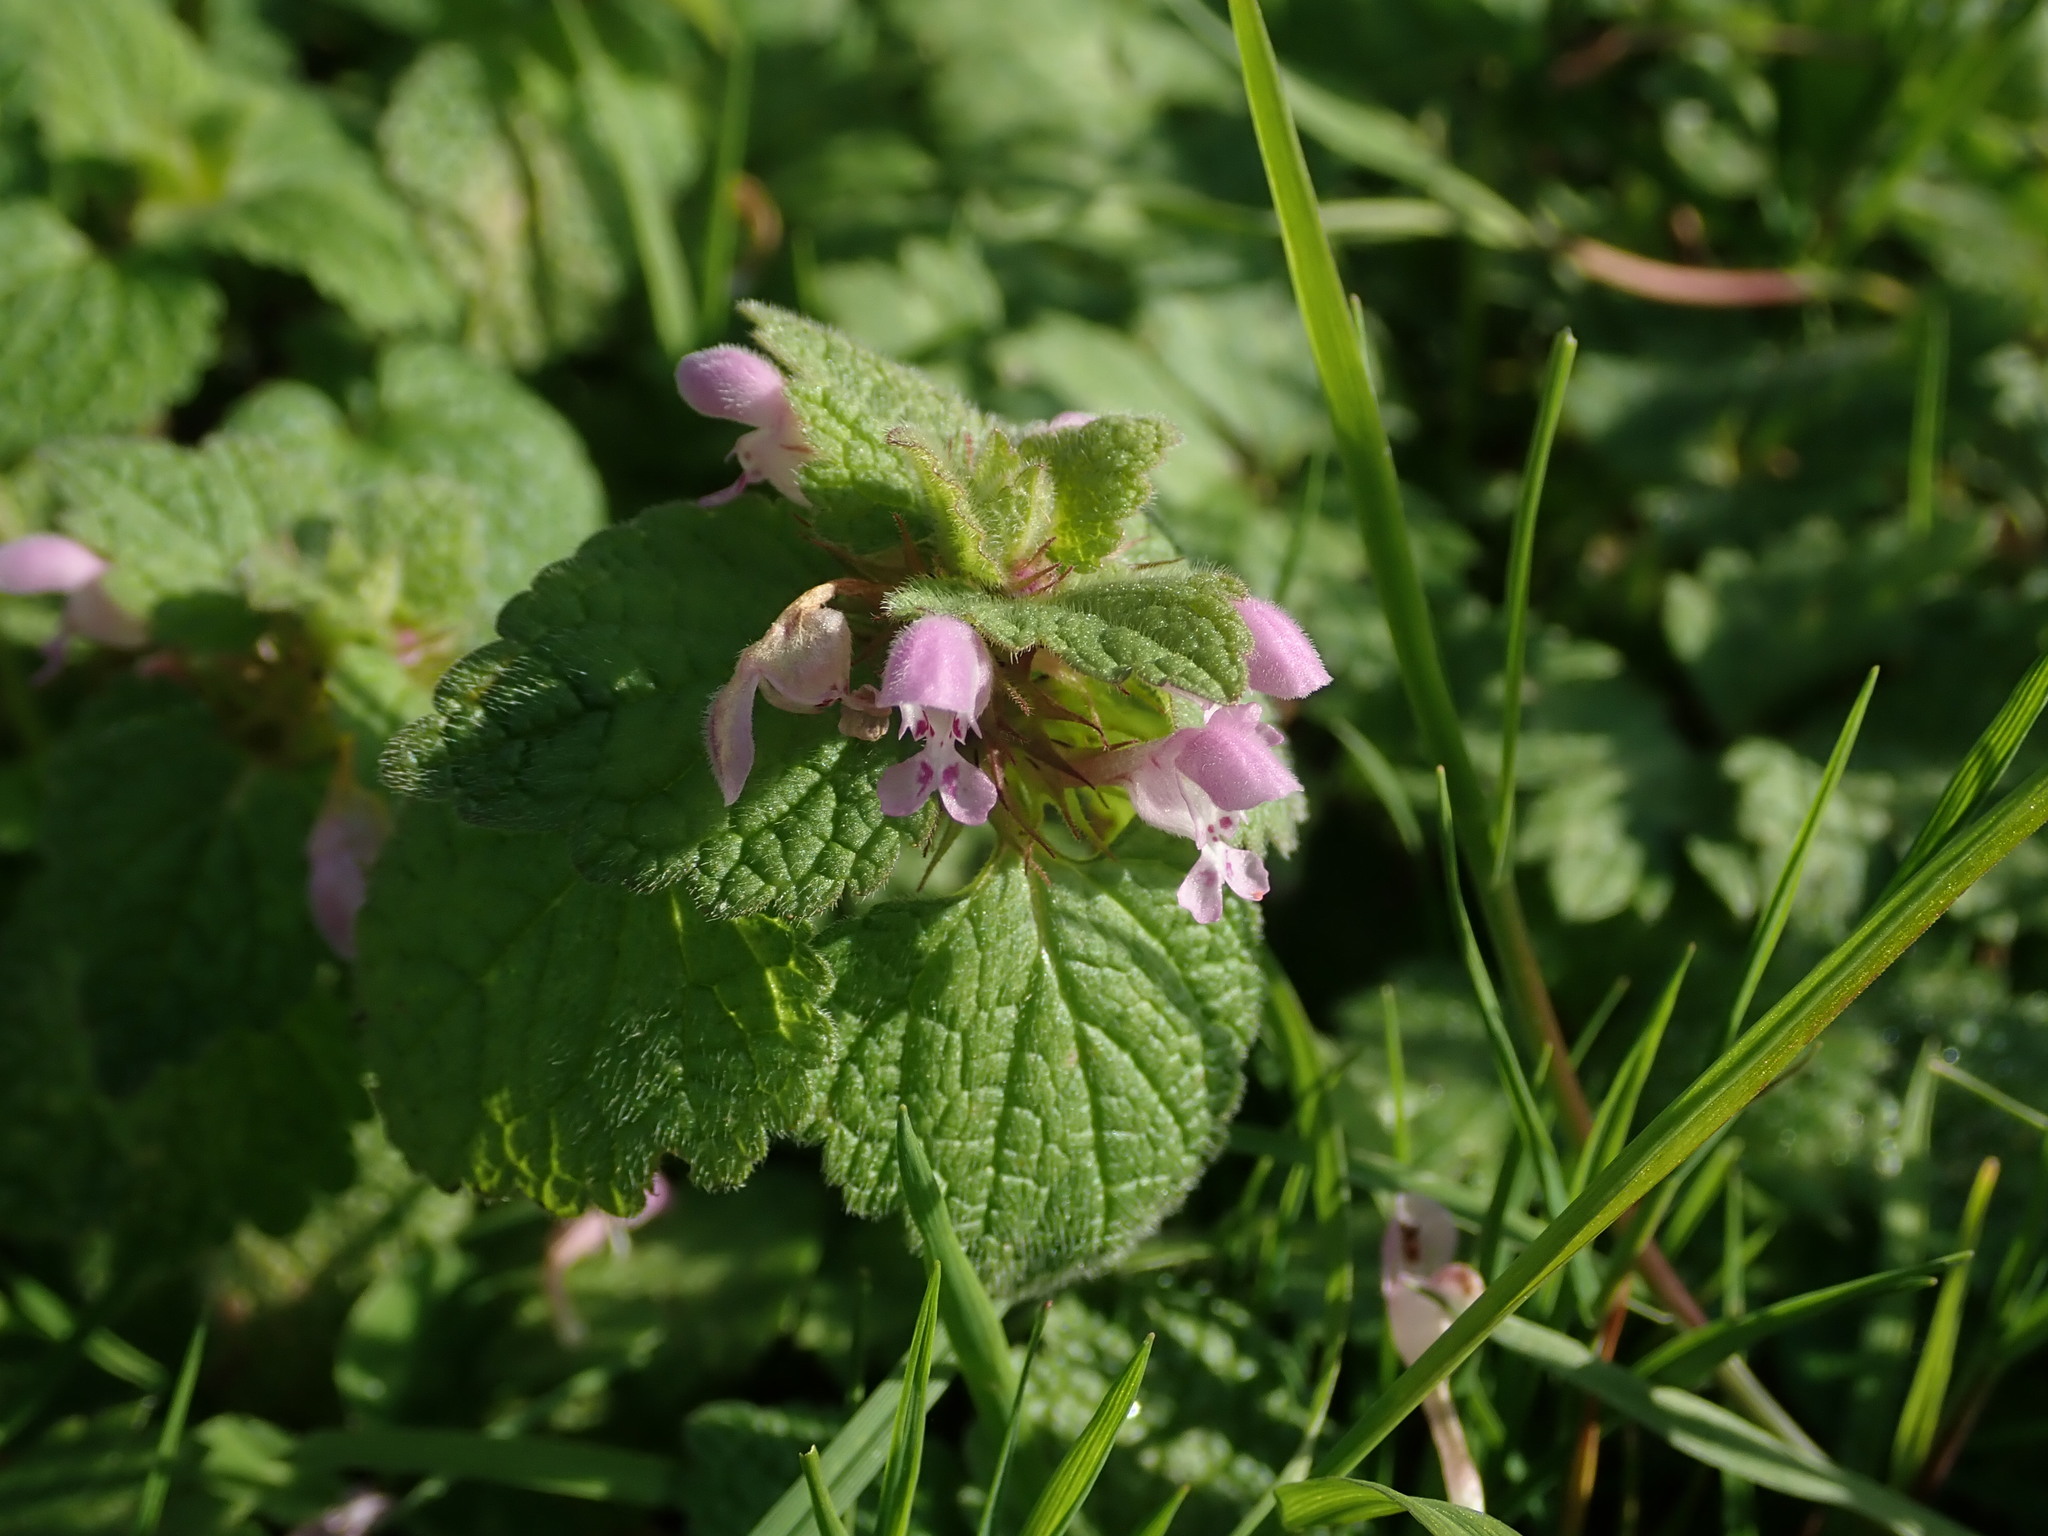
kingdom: Plantae
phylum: Tracheophyta
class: Magnoliopsida
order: Lamiales
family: Lamiaceae
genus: Lamium
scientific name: Lamium purpureum
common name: Red dead-nettle
